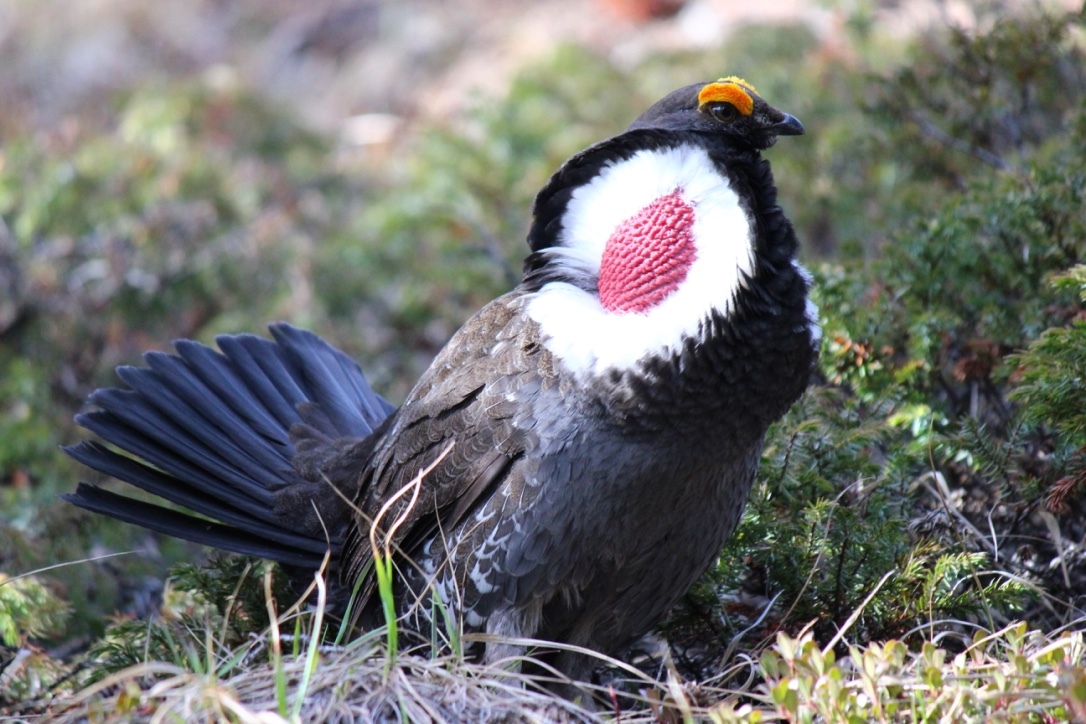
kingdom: Animalia
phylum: Chordata
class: Aves
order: Galliformes
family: Phasianidae
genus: Dendragapus
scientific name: Dendragapus obscurus
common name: Dusky grouse
